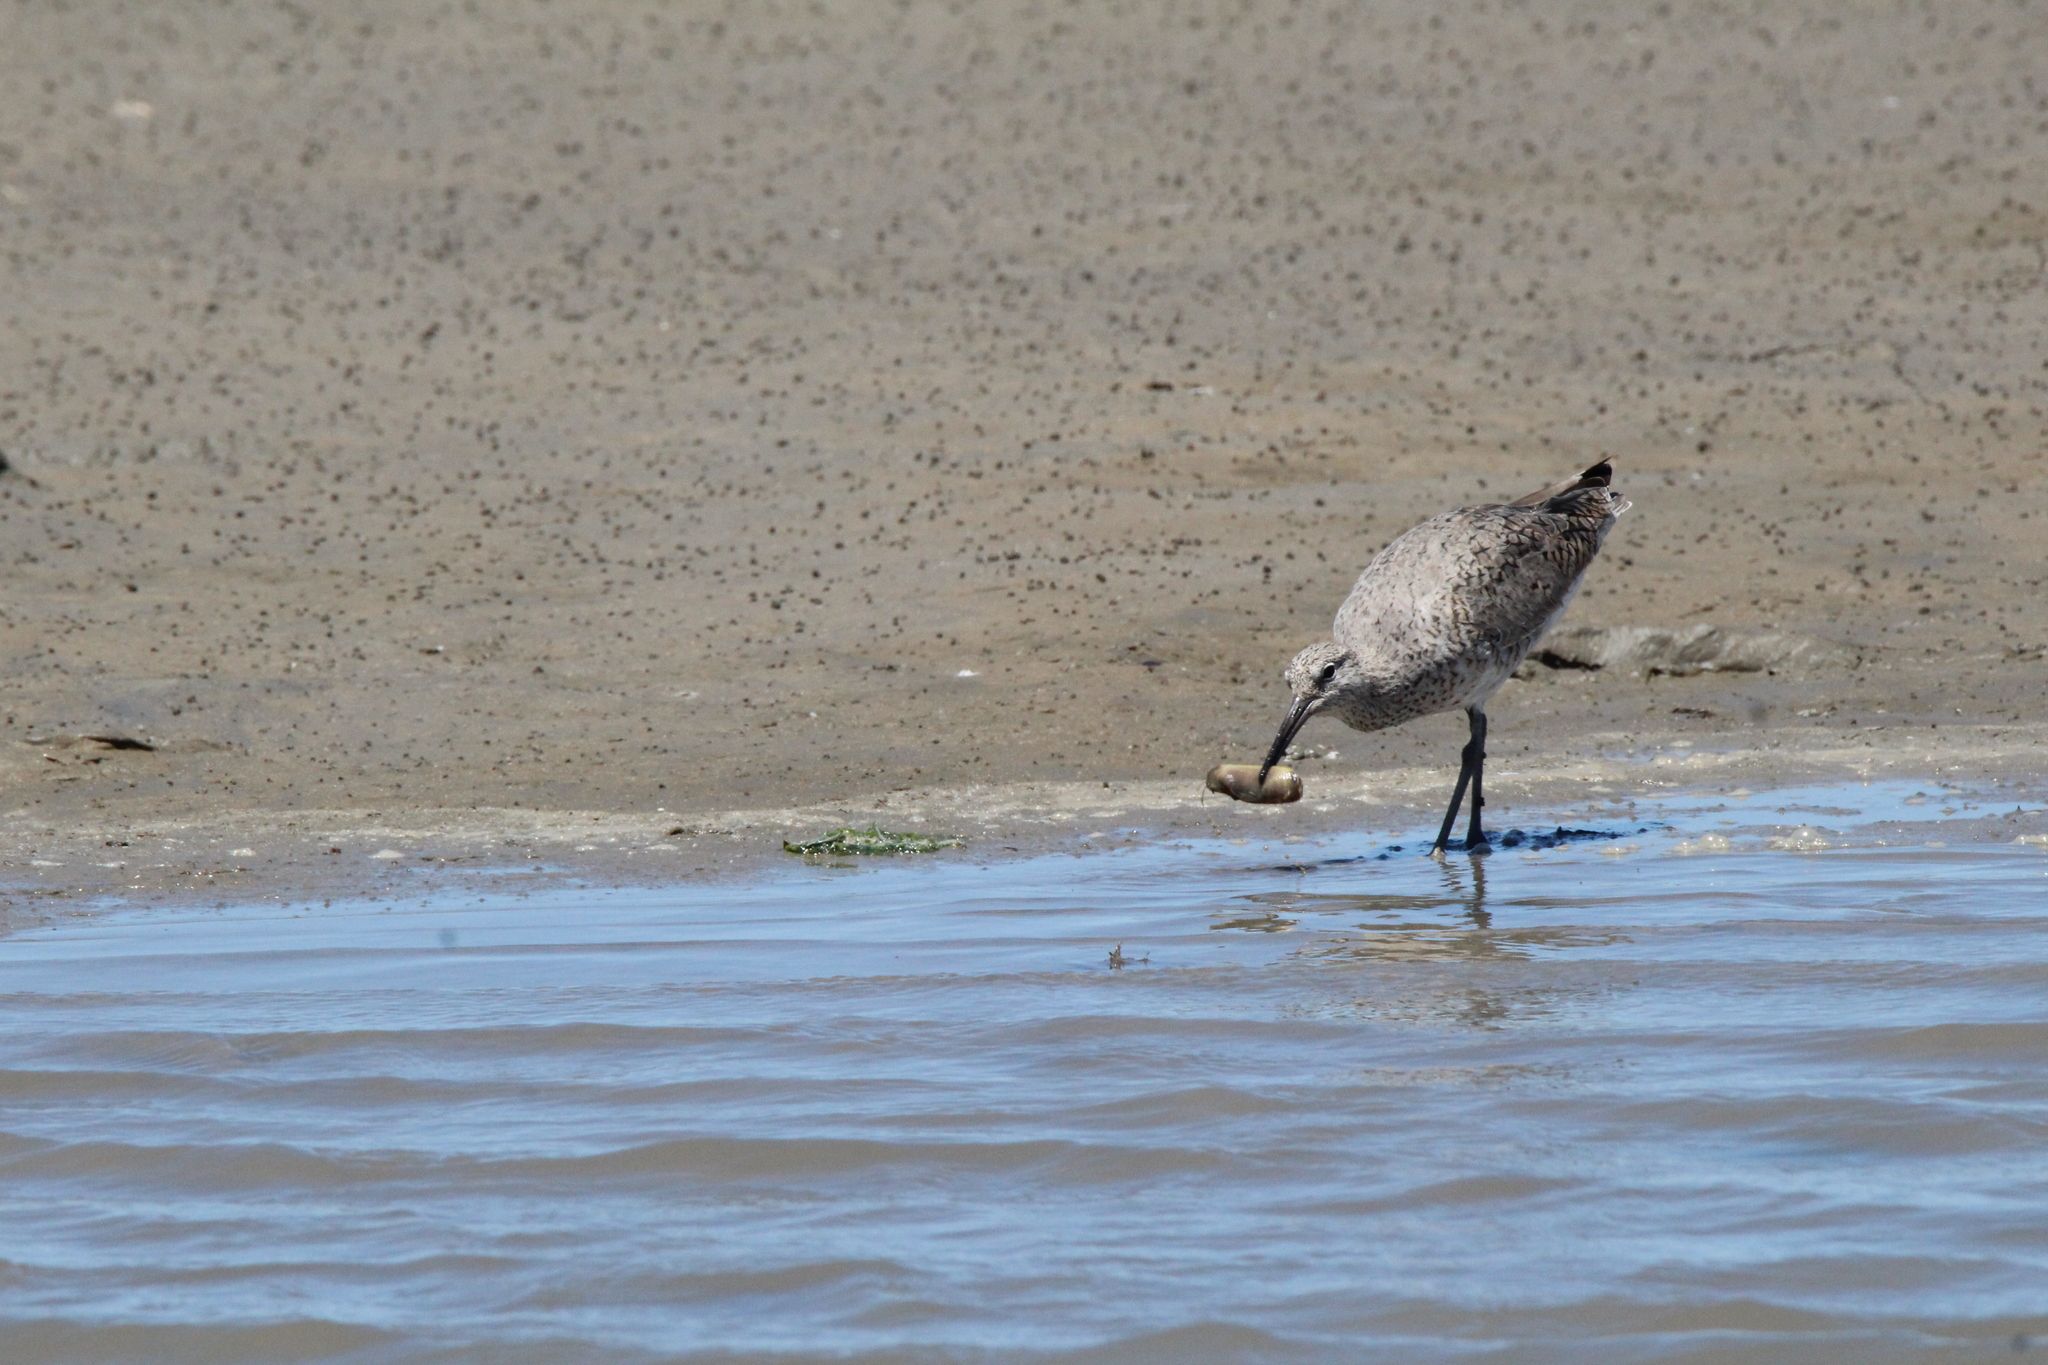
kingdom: Animalia
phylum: Chordata
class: Aves
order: Charadriiformes
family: Scolopacidae
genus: Tringa
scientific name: Tringa semipalmata
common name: Willet
